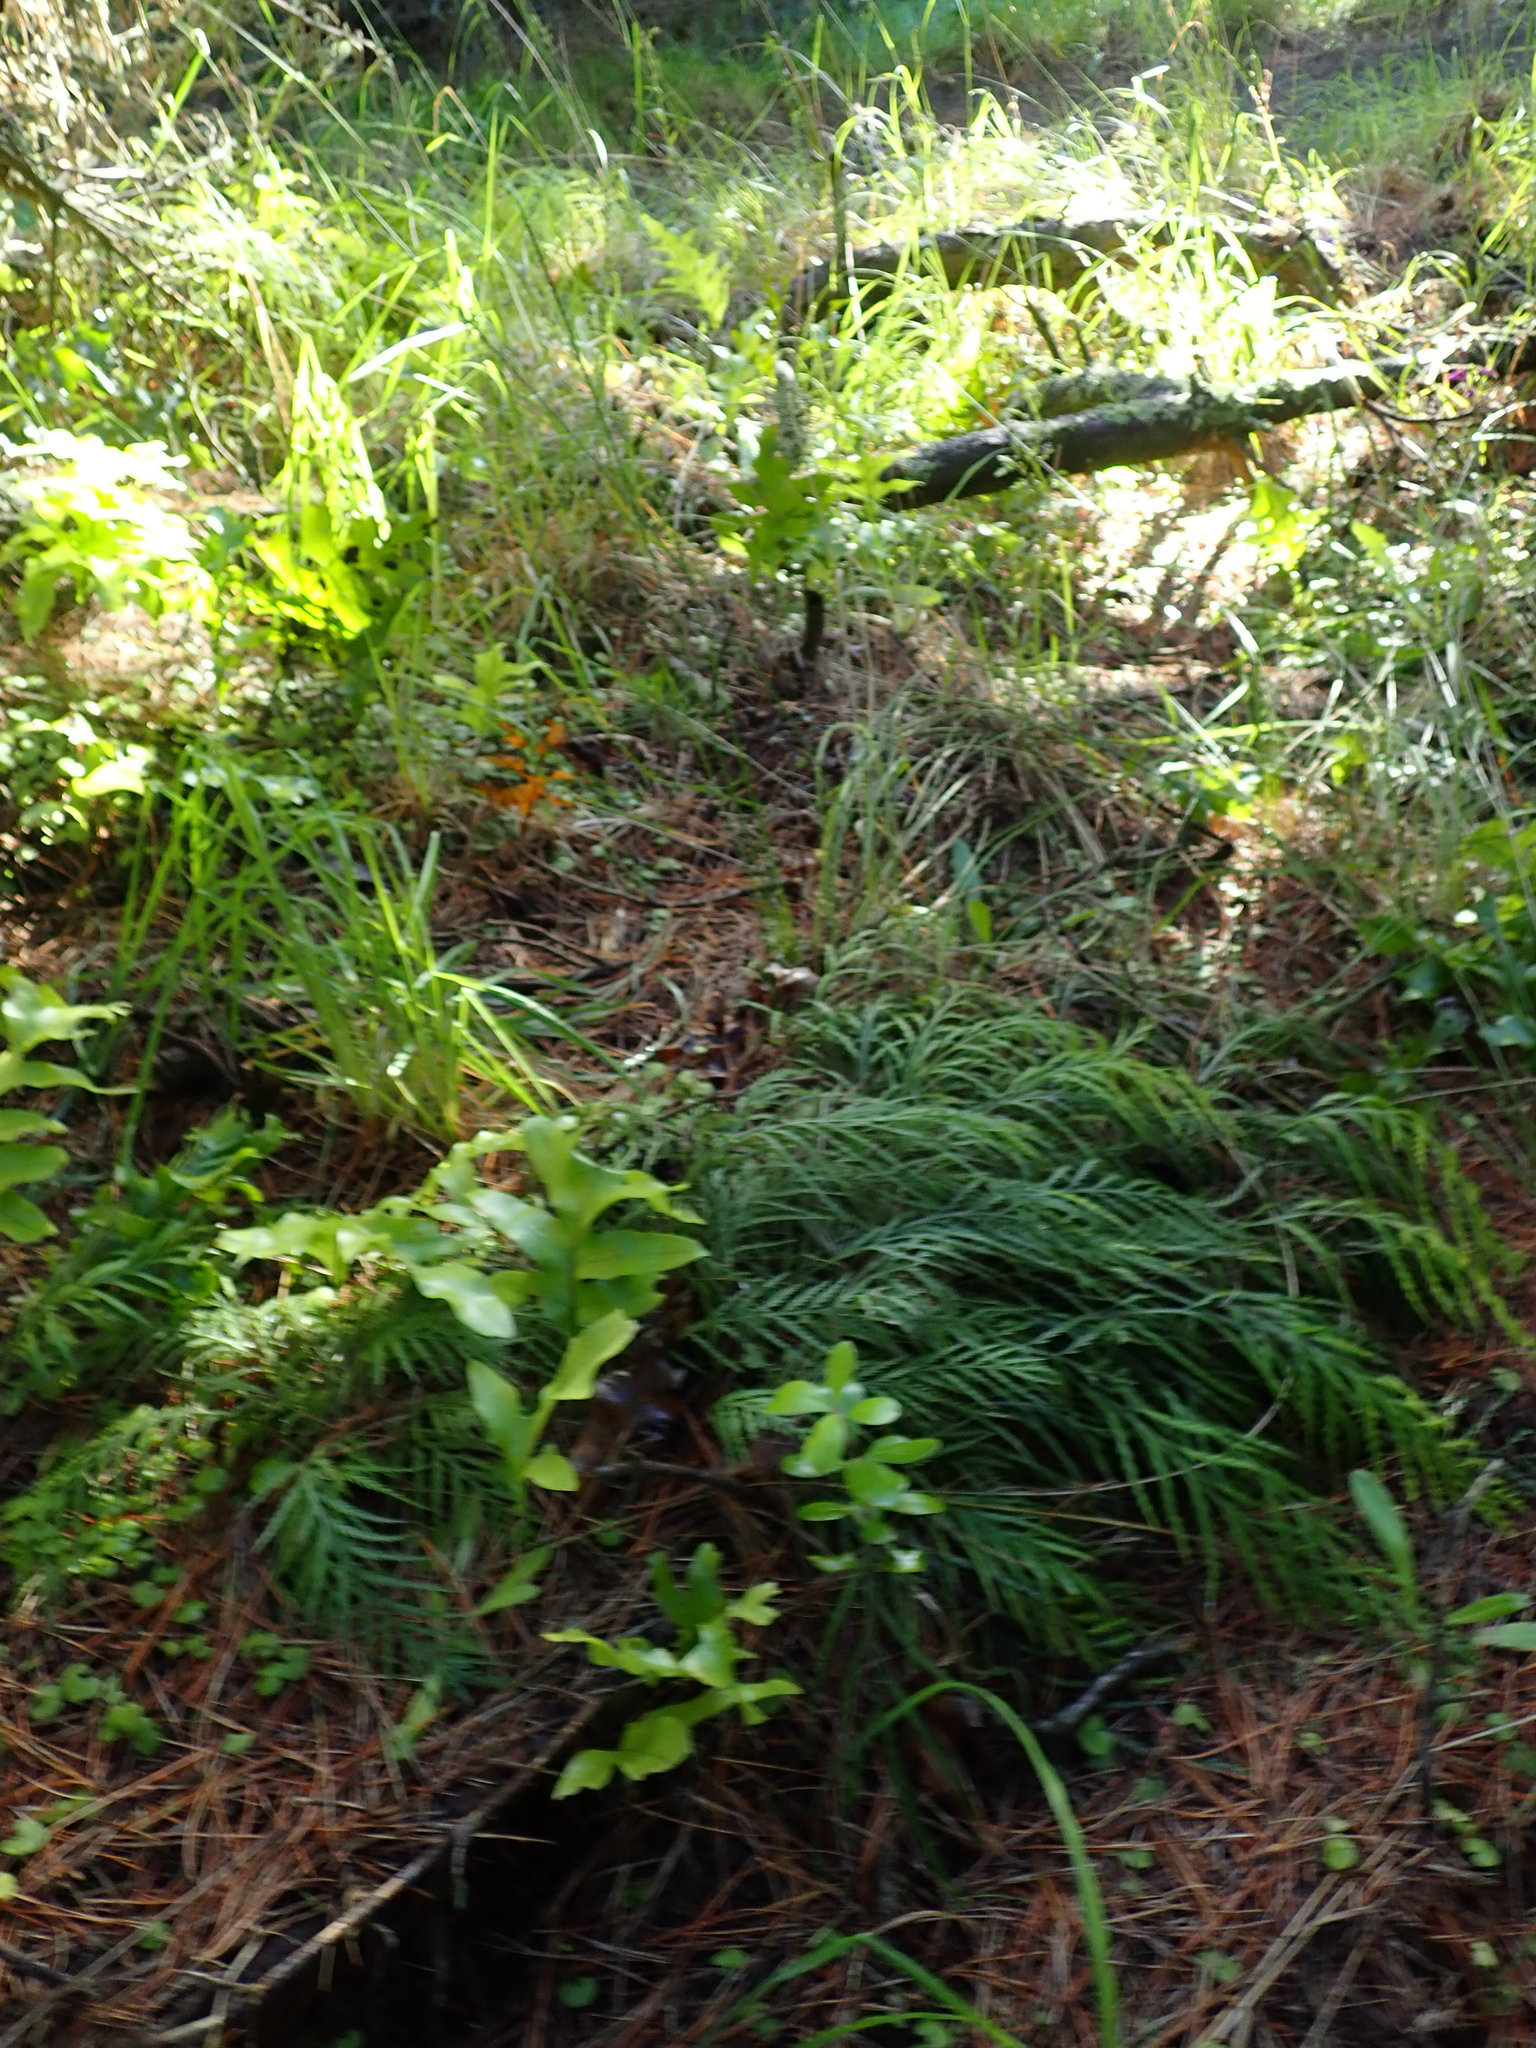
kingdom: Plantae
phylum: Tracheophyta
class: Polypodiopsida
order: Polypodiales
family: Aspleniaceae
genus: Asplenium
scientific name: Asplenium flaccidum
